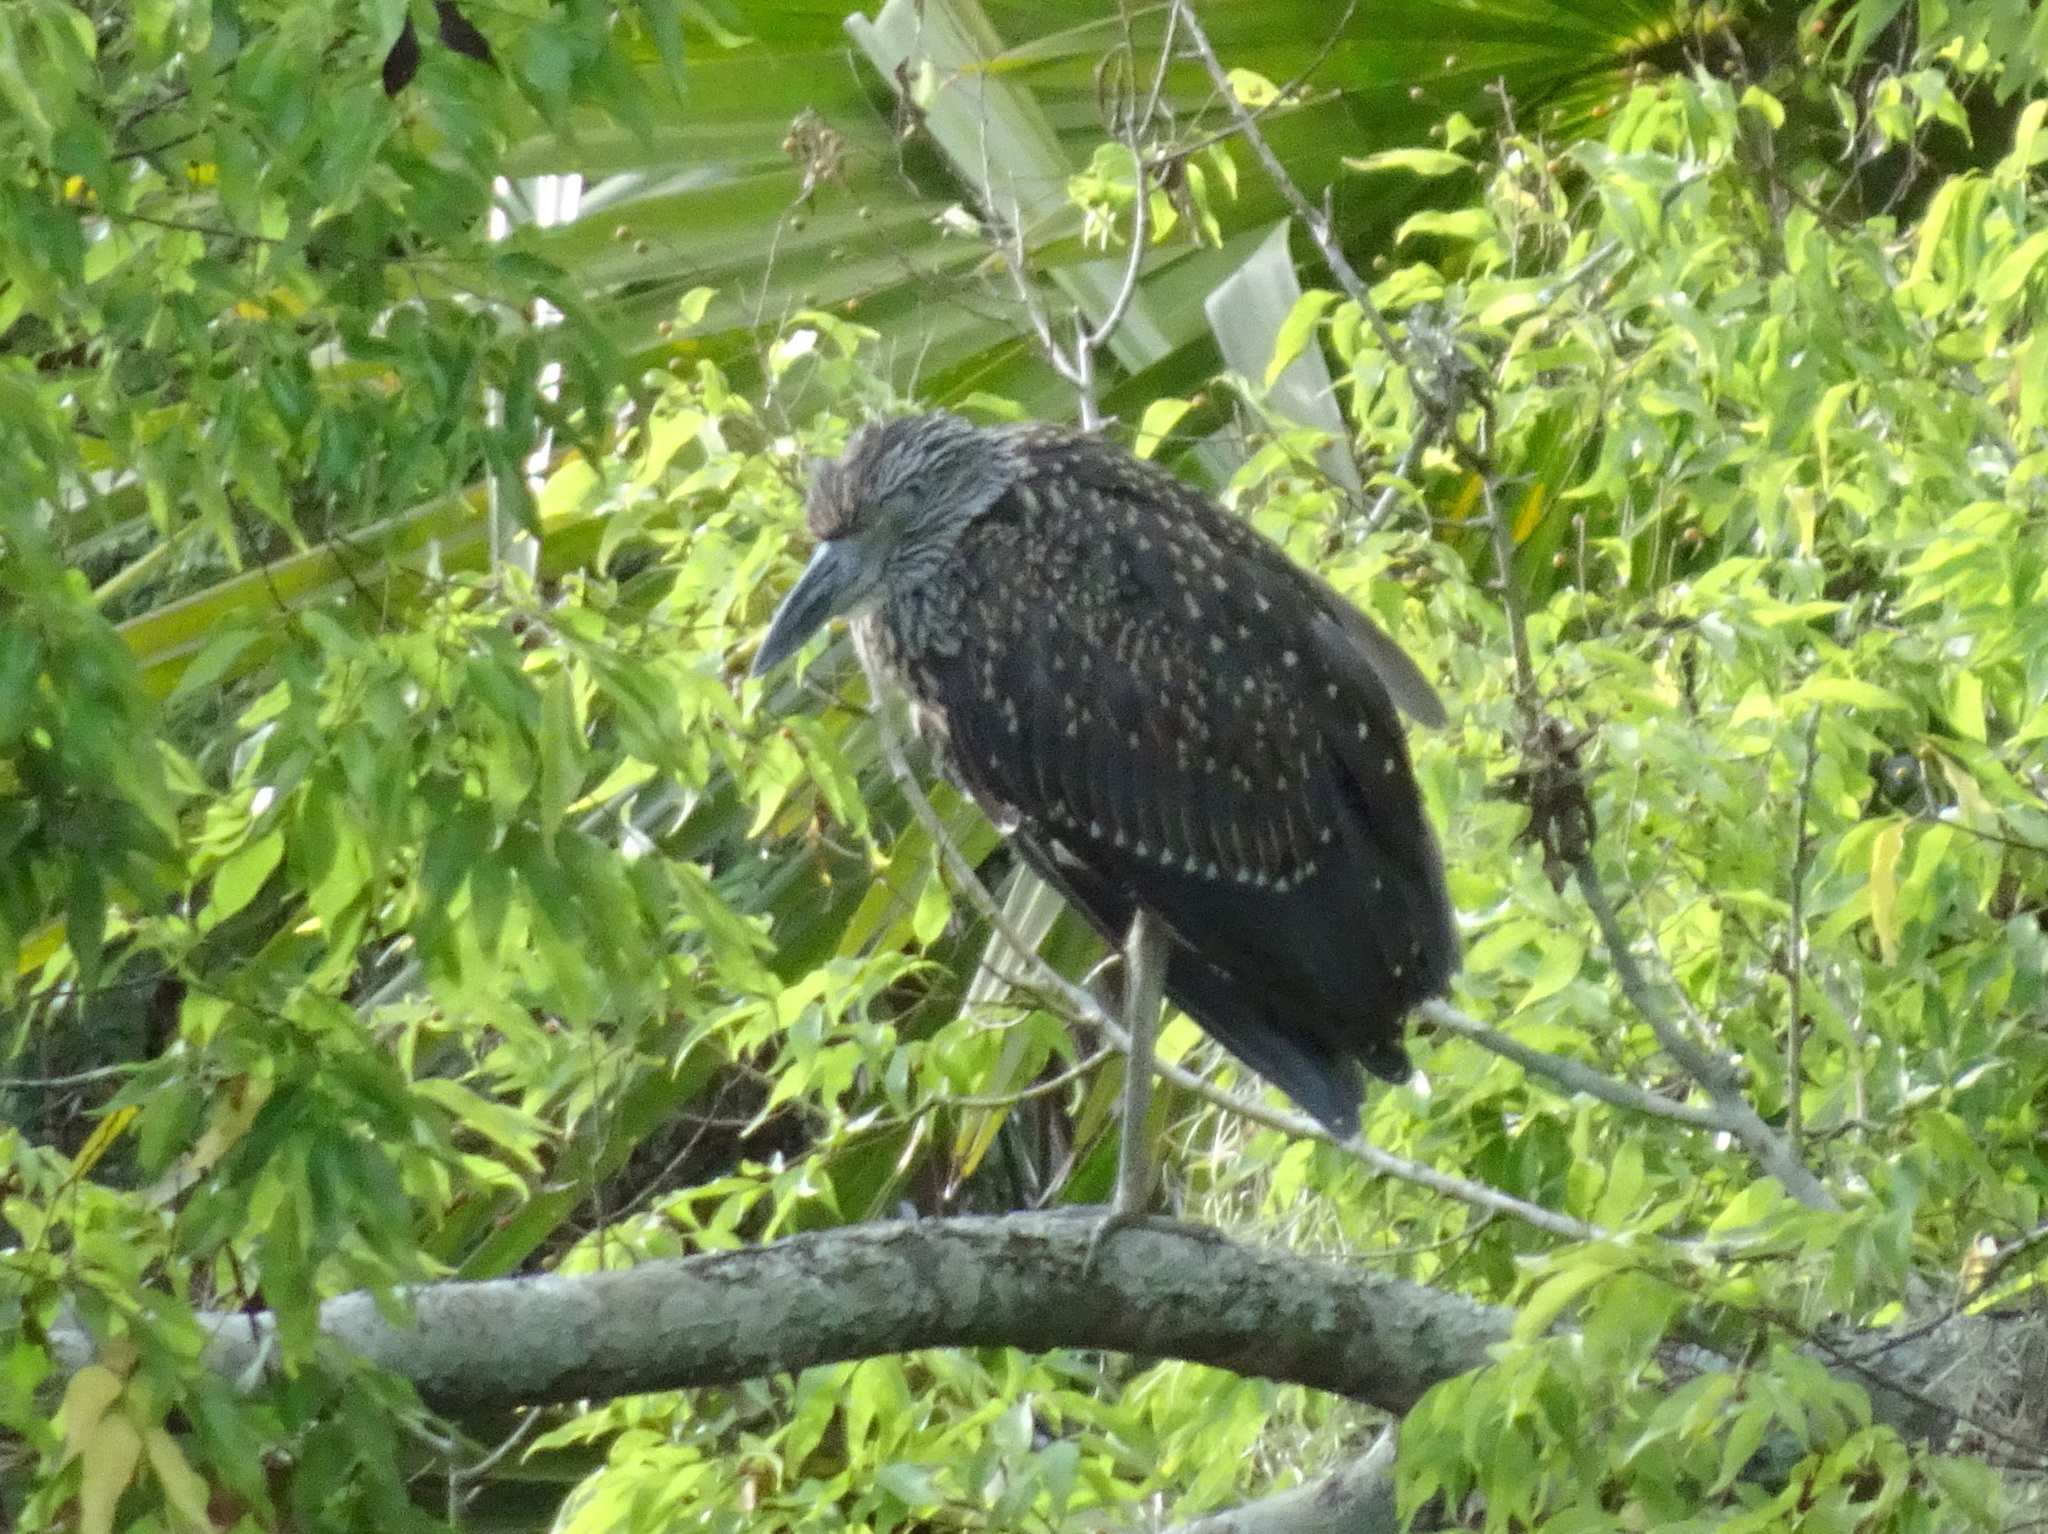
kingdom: Animalia
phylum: Chordata
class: Aves
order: Pelecaniformes
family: Ardeidae
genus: Nyctanassa
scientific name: Nyctanassa violacea
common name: Yellow-crowned night heron
